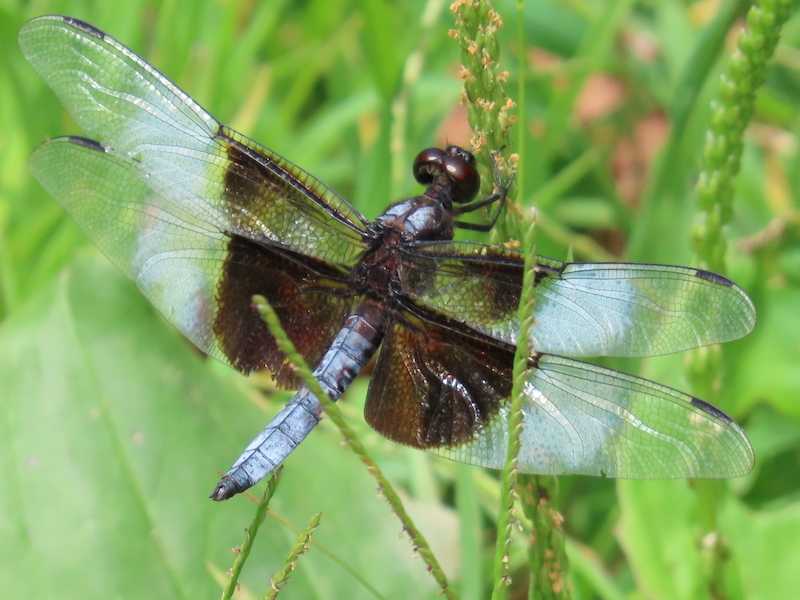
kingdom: Animalia
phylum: Arthropoda
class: Insecta
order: Odonata
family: Libellulidae
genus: Libellula
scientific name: Libellula luctuosa
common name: Widow skimmer
